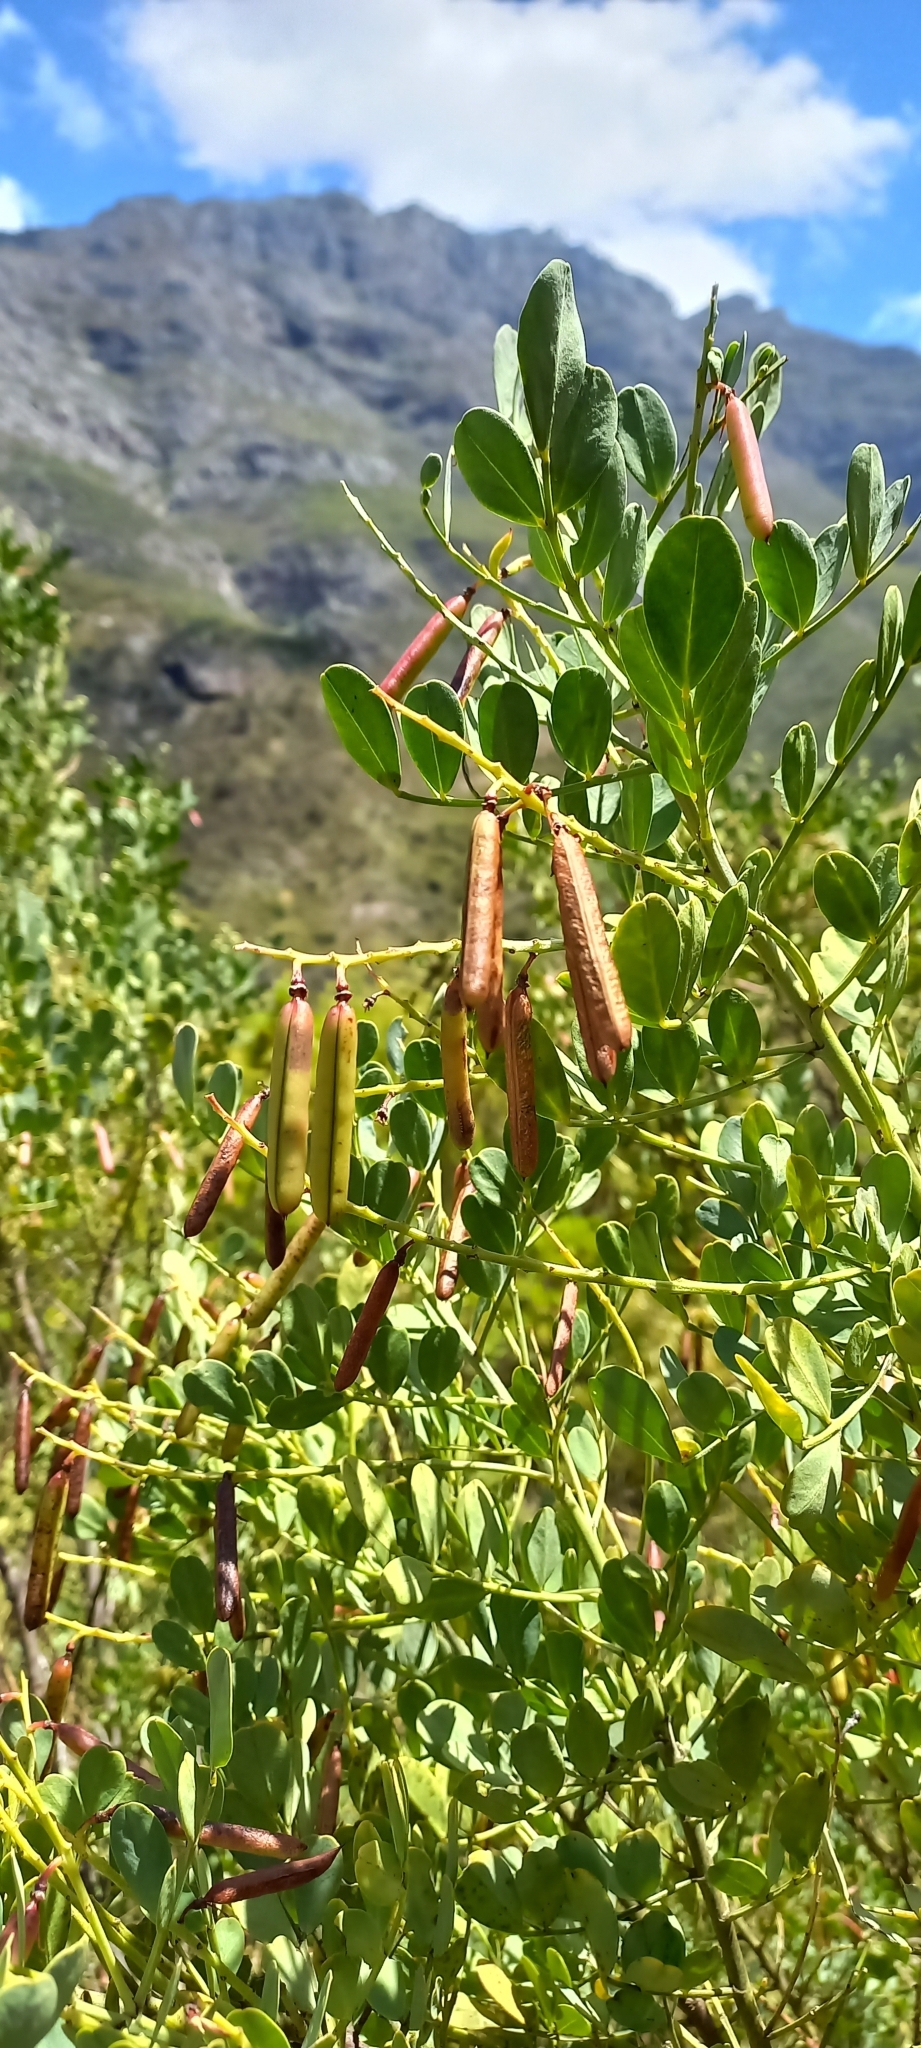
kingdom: Plantae
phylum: Tracheophyta
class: Magnoliopsida
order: Fabales
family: Fabaceae
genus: Indigofera
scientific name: Indigofera frutescens
